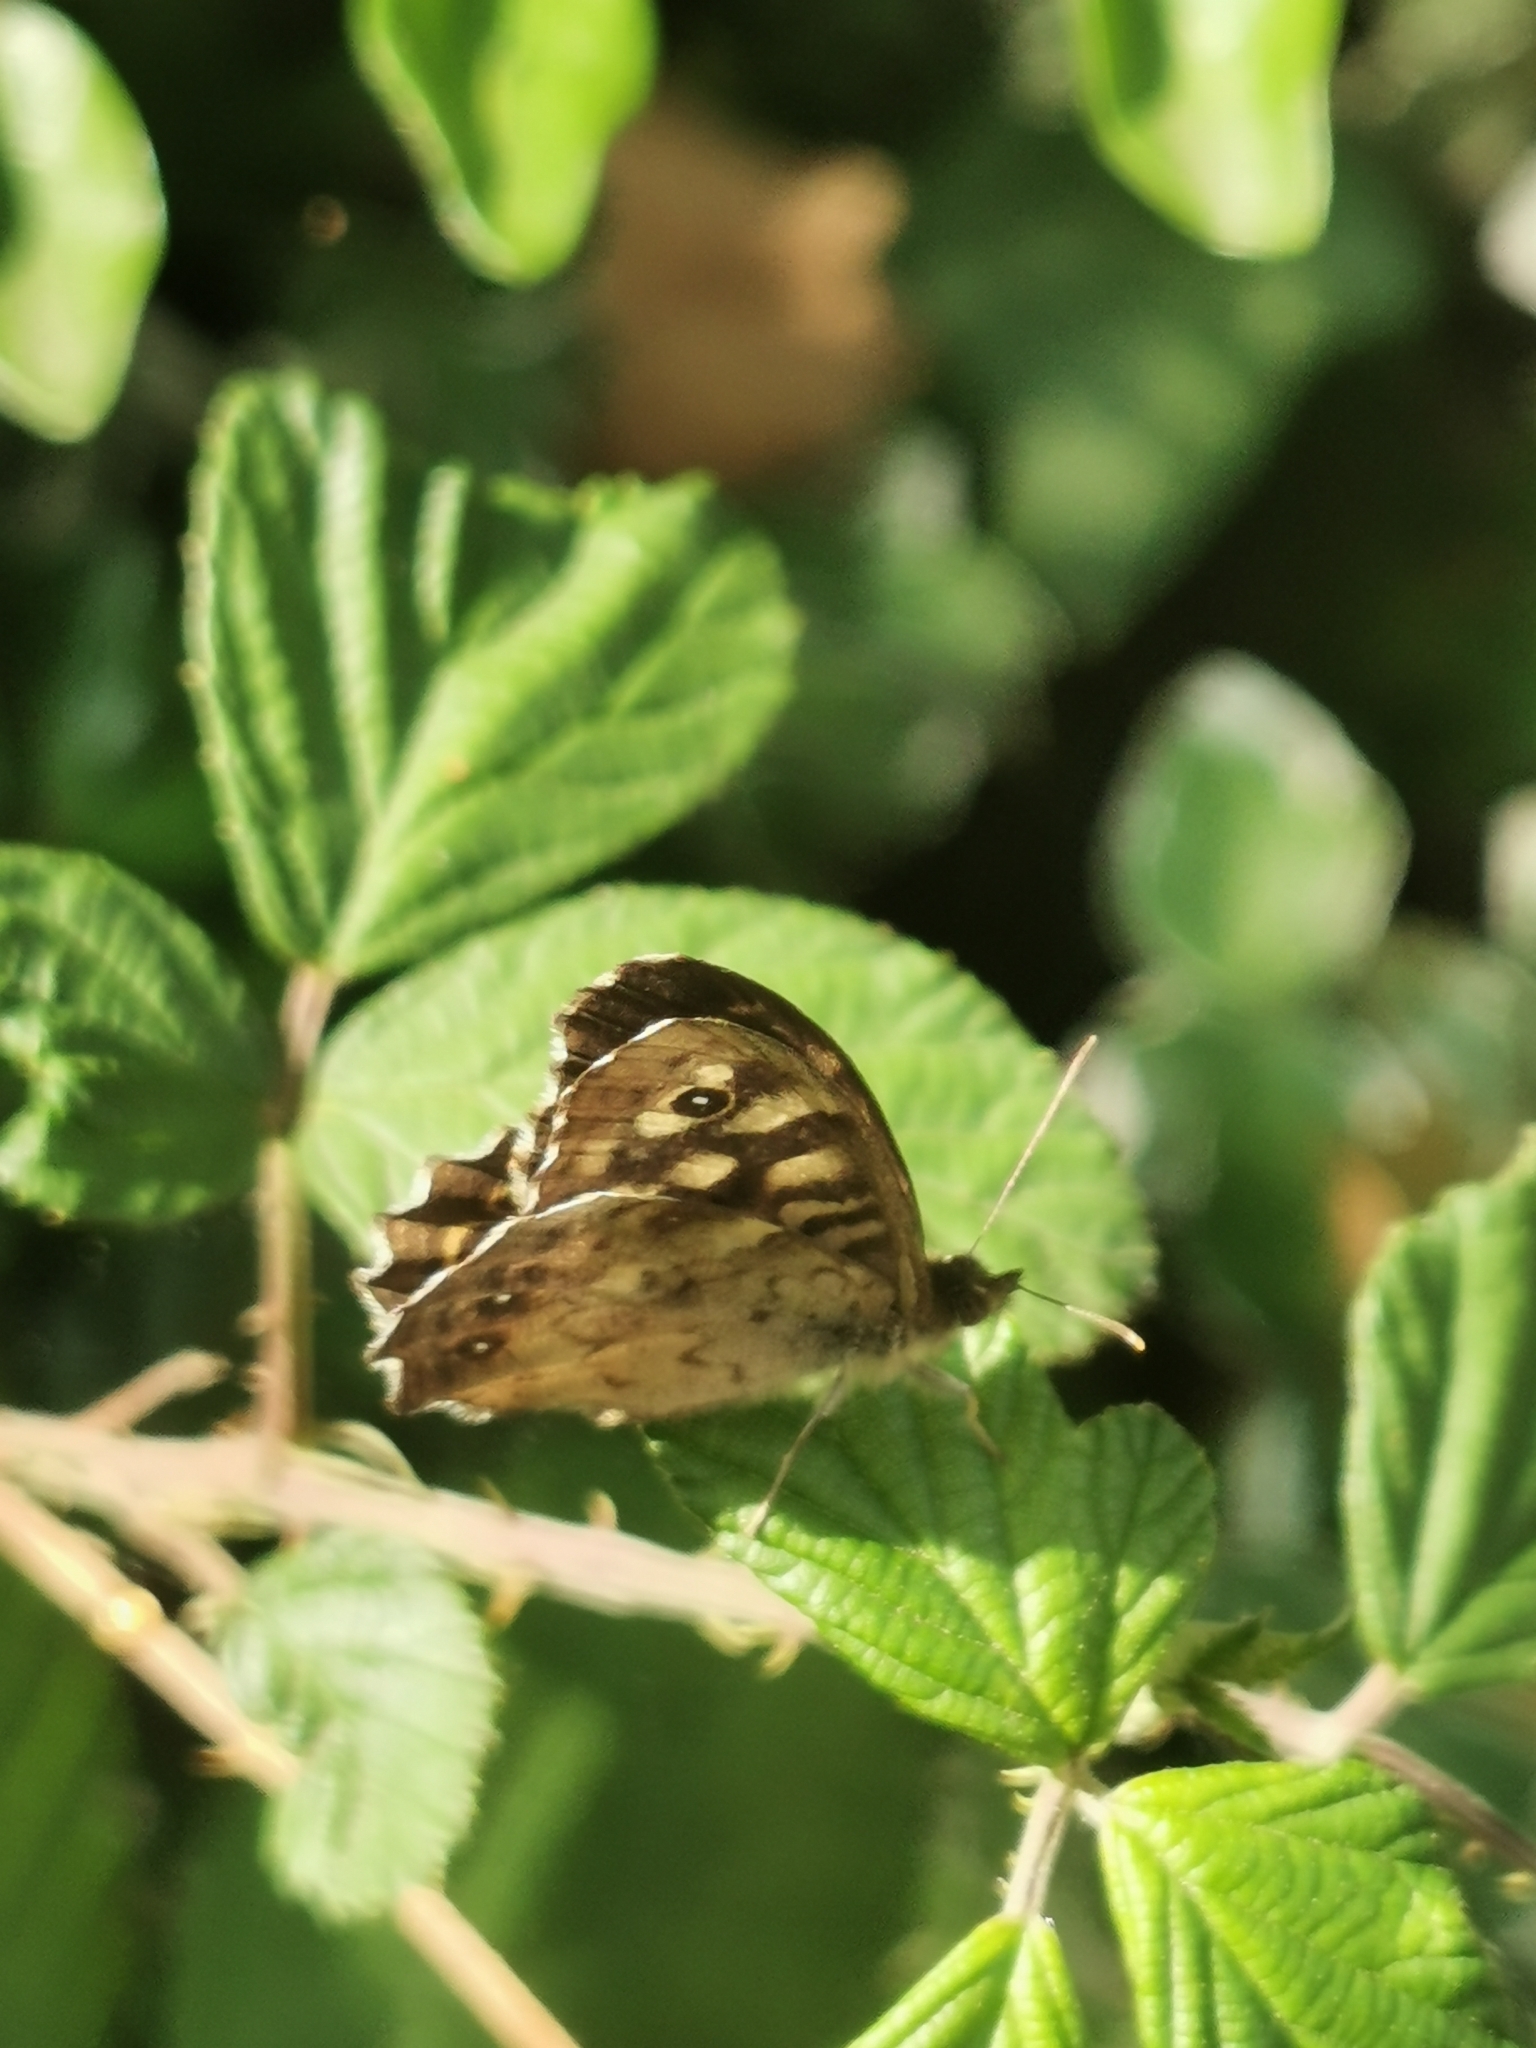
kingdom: Animalia
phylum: Arthropoda
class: Insecta
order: Lepidoptera
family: Nymphalidae
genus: Pararge
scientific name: Pararge aegeria
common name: Speckled wood
